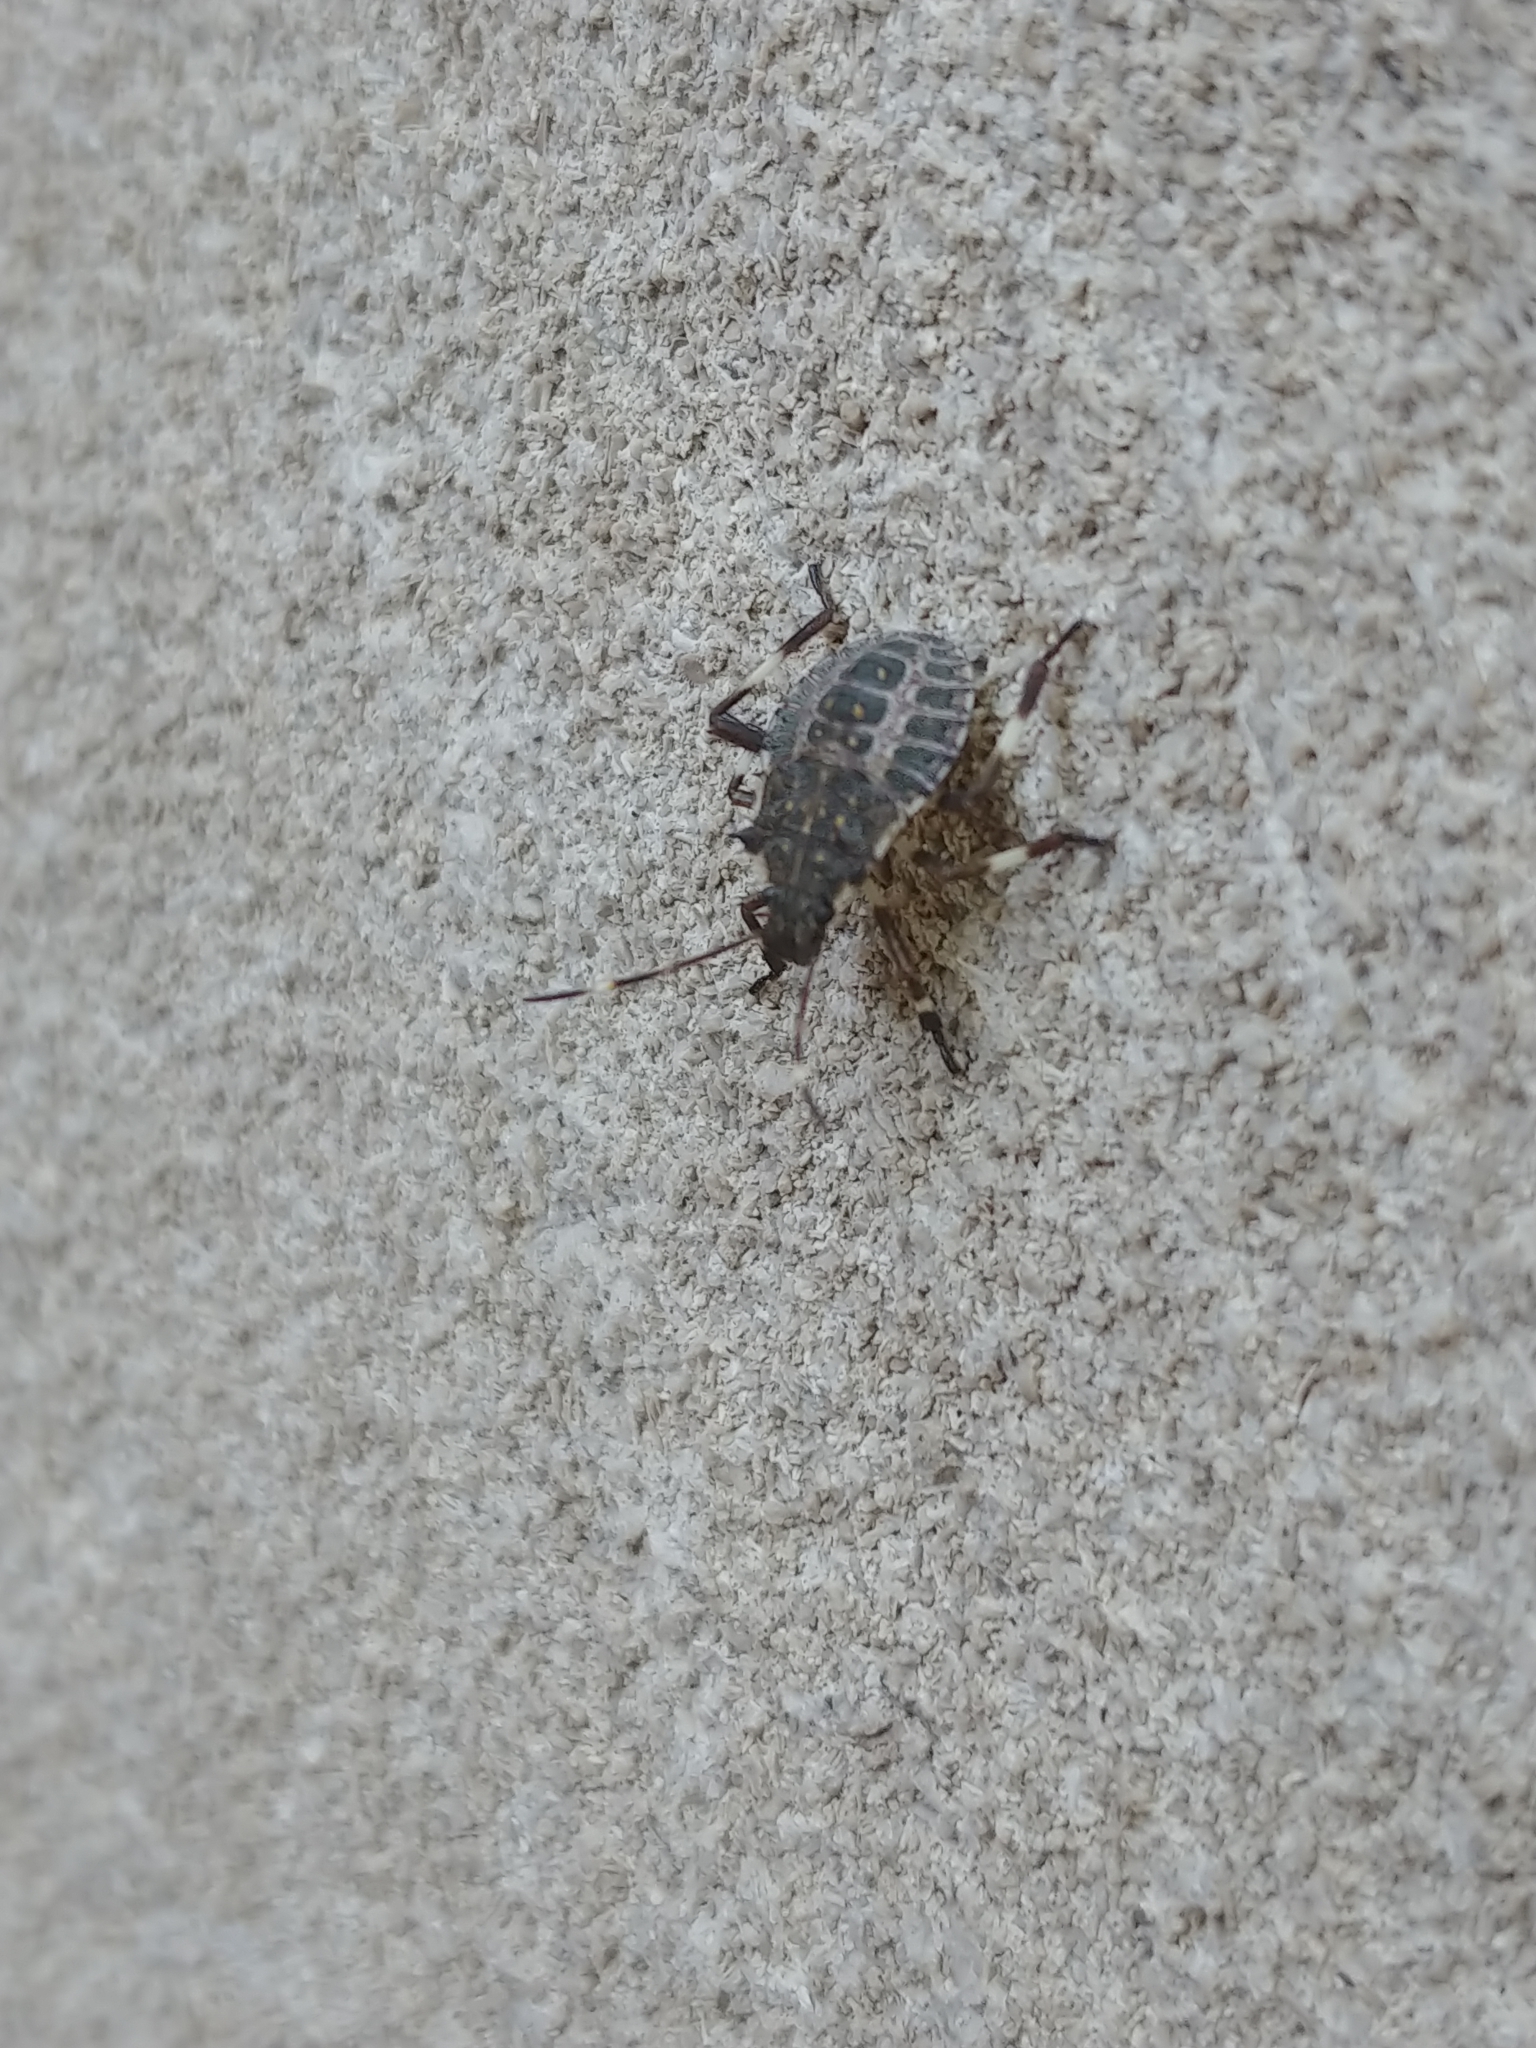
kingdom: Animalia
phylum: Arthropoda
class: Insecta
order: Hemiptera
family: Pentatomidae
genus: Halyomorpha
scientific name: Halyomorpha halys
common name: Brown marmorated stink bug
